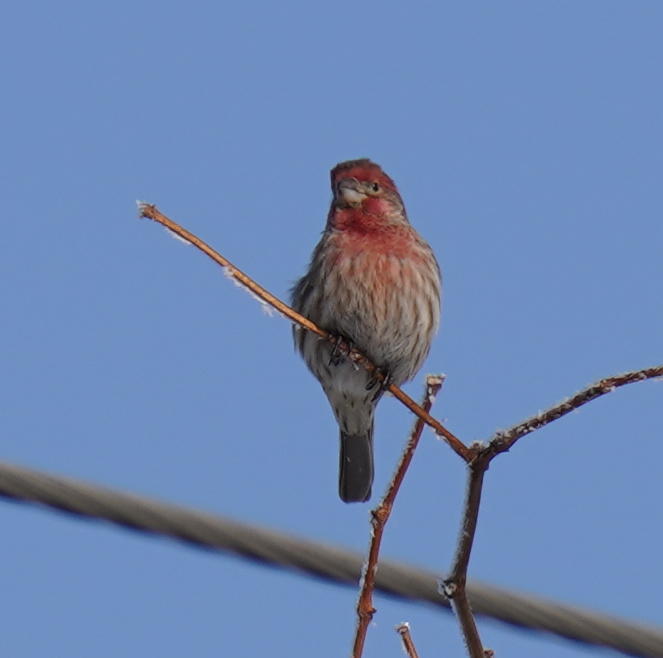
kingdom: Animalia
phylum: Chordata
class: Aves
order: Passeriformes
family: Fringillidae
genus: Haemorhous
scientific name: Haemorhous mexicanus
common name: House finch
